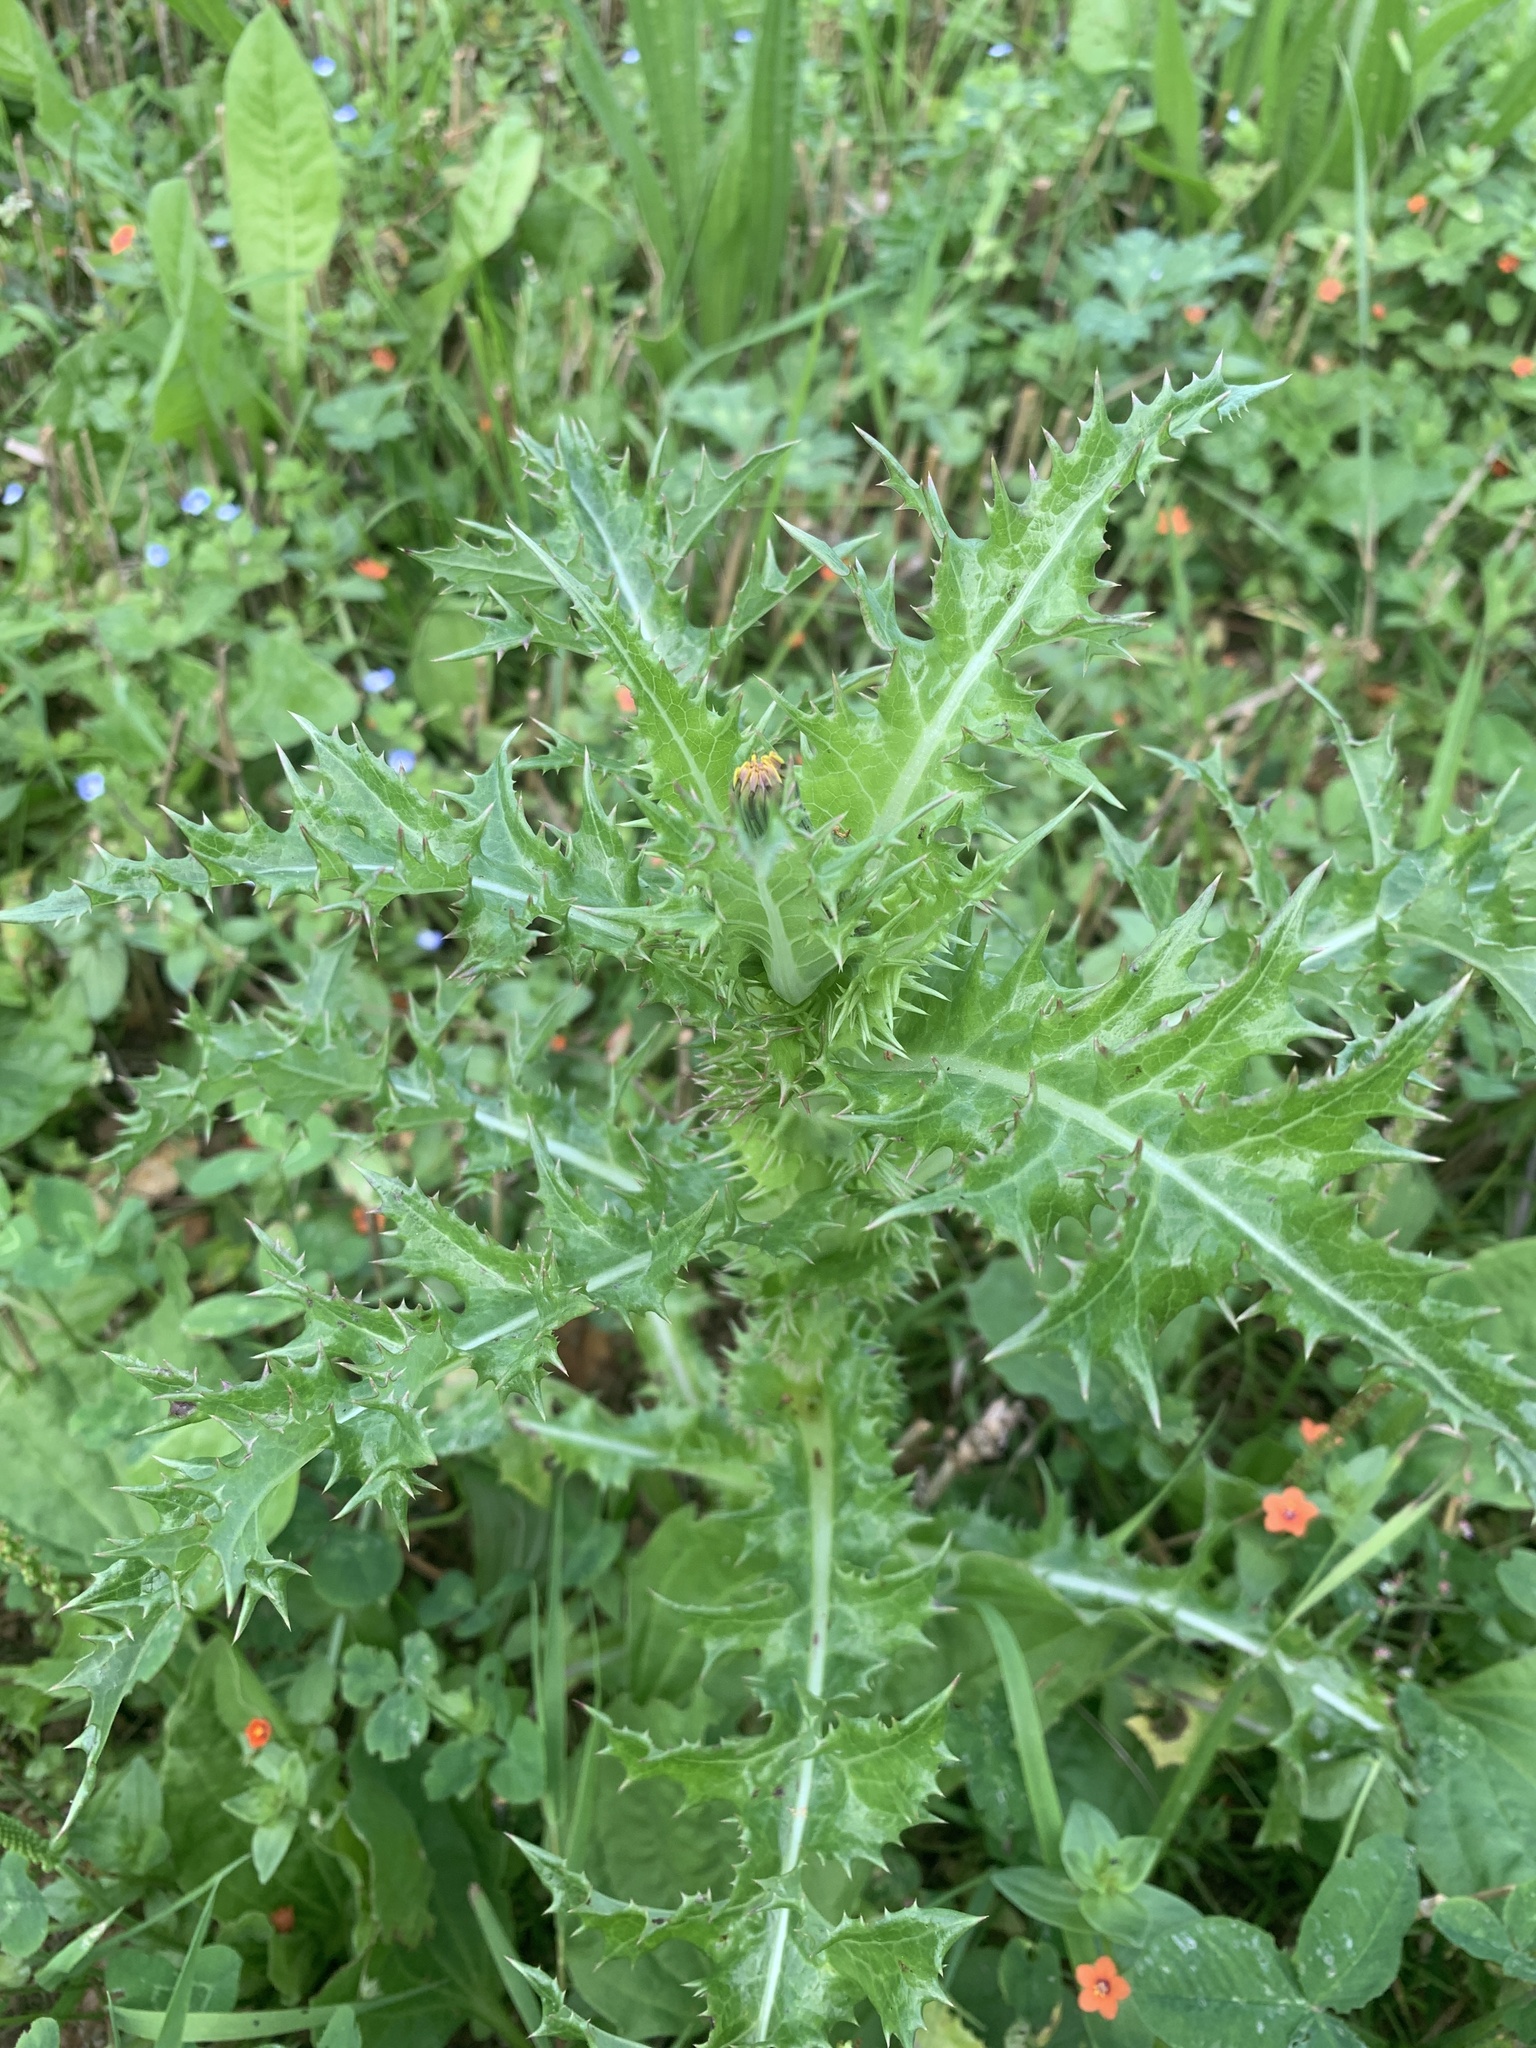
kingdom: Plantae
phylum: Tracheophyta
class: Magnoliopsida
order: Asterales
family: Asteraceae
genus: Sonchus
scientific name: Sonchus asper
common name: Prickly sow-thistle
